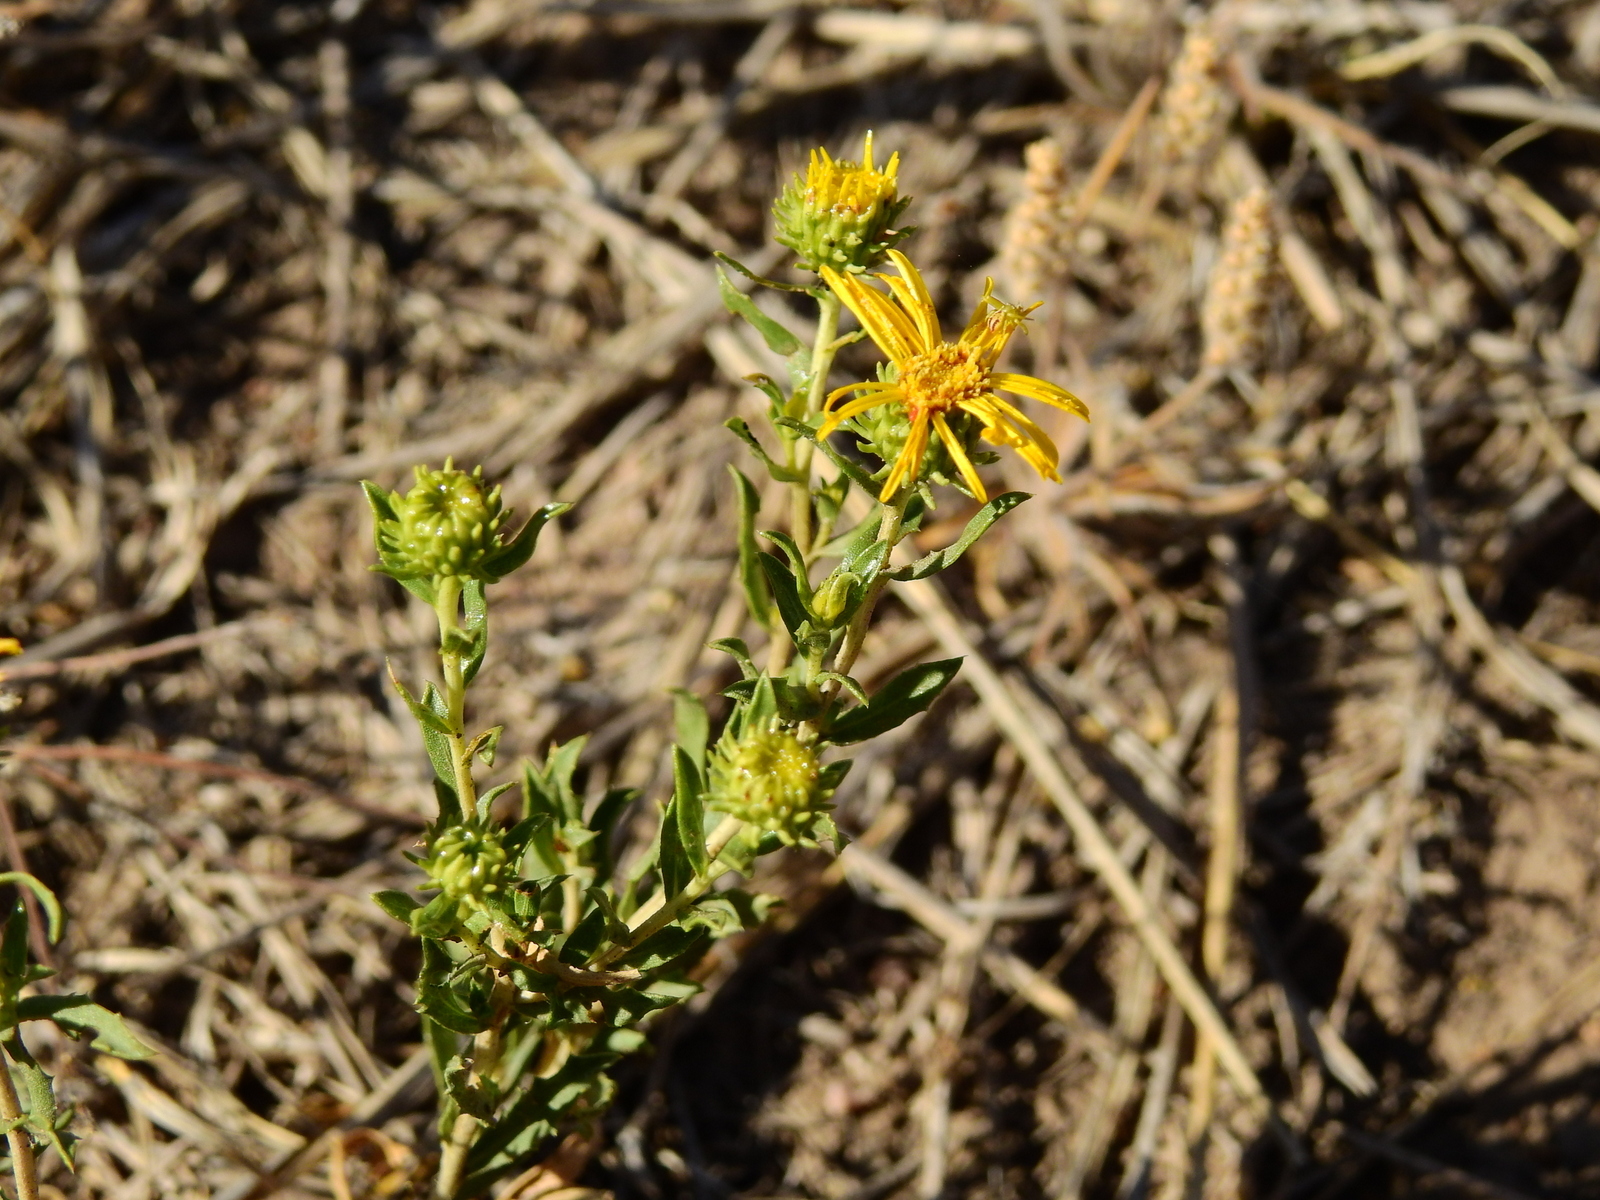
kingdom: Plantae
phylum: Tracheophyta
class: Magnoliopsida
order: Asterales
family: Asteraceae
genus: Grindelia
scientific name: Grindelia pulchella
